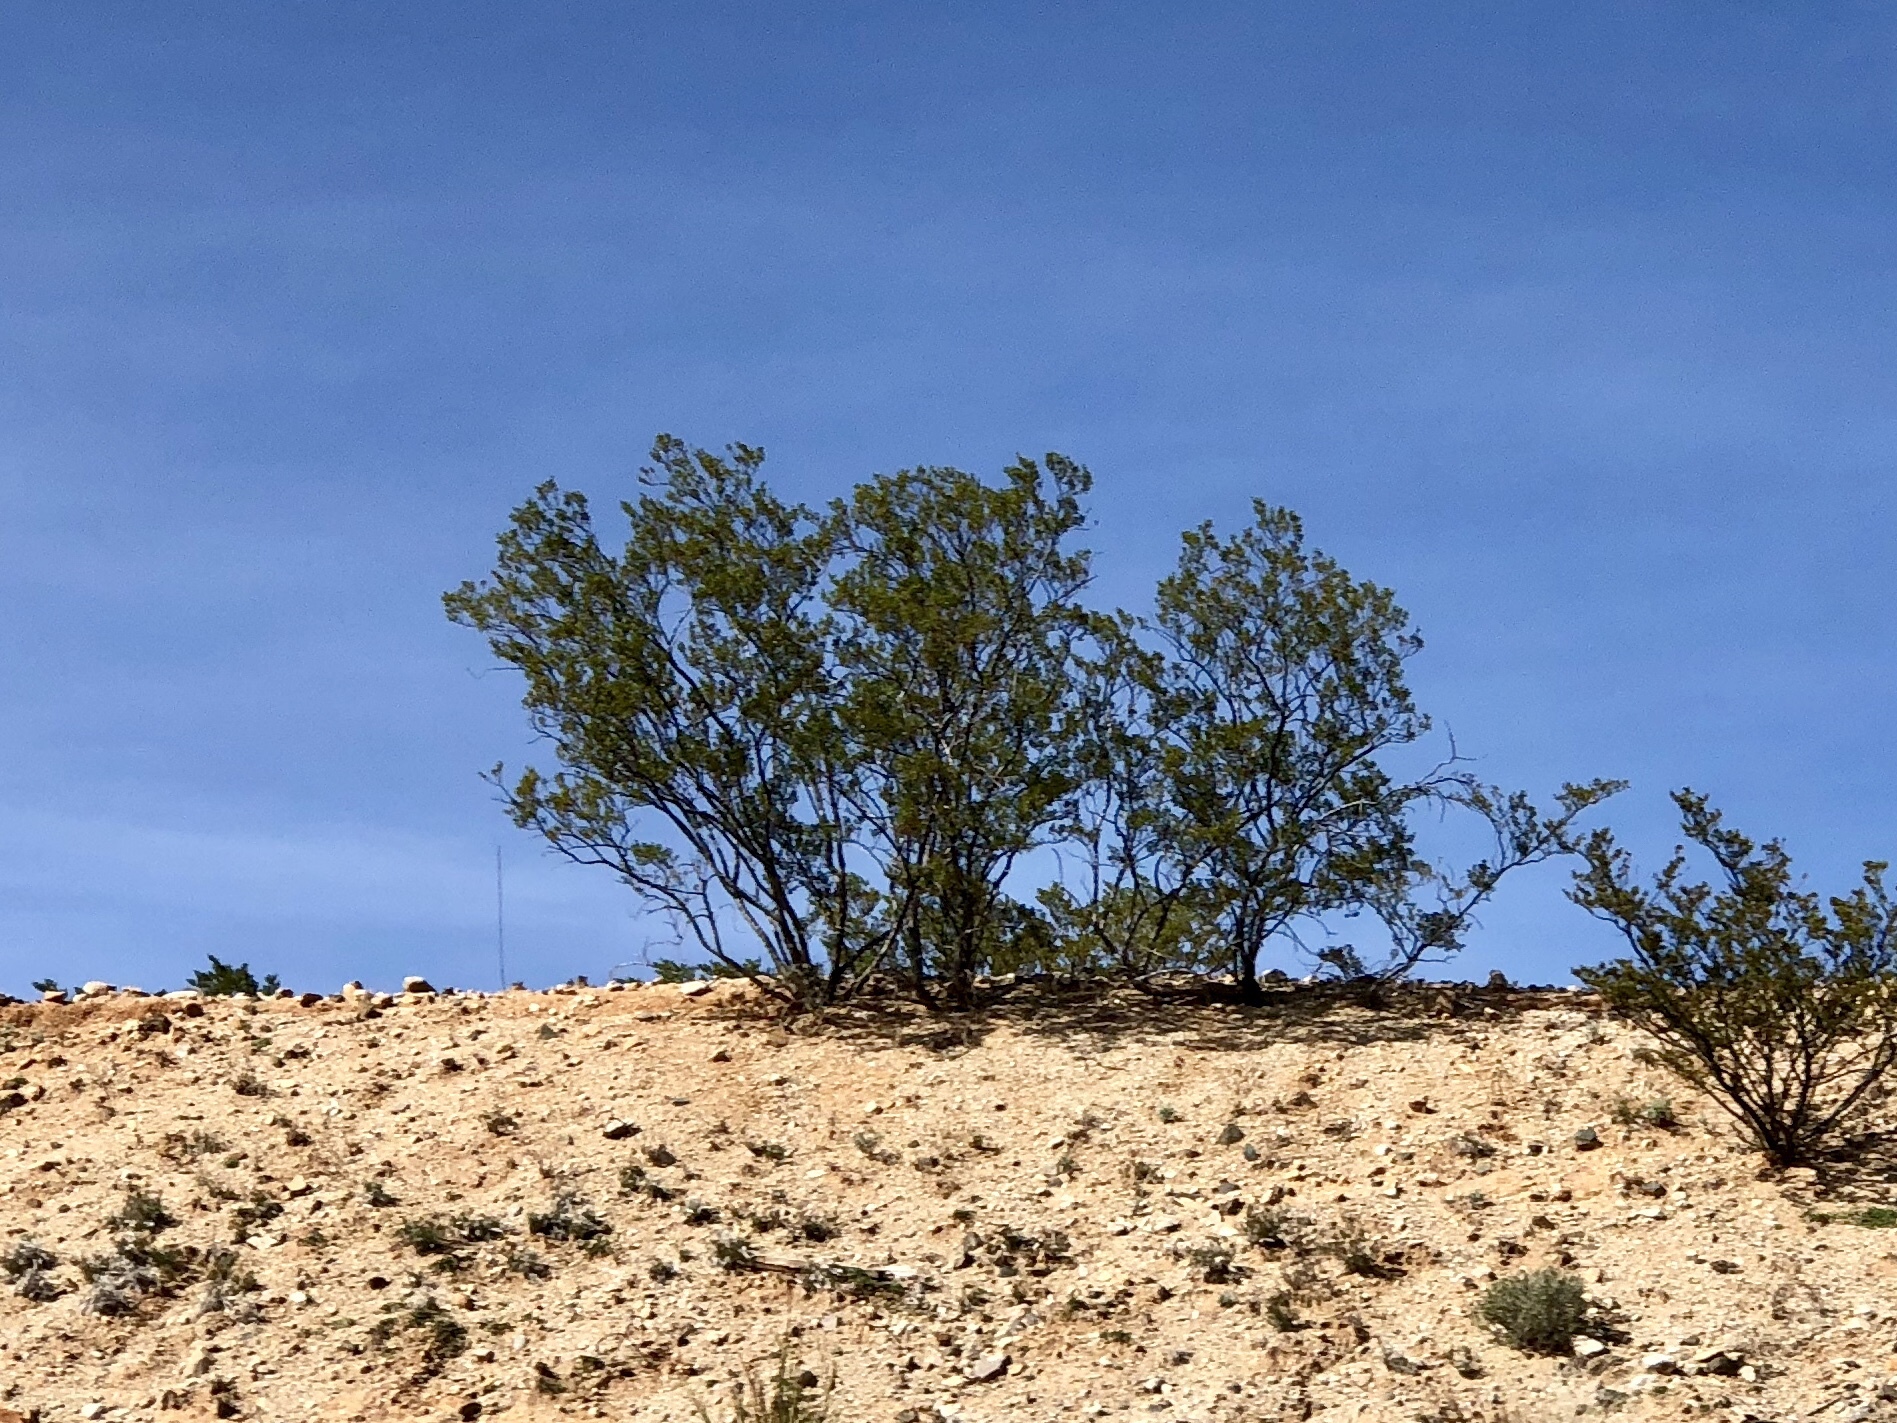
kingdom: Plantae
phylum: Tracheophyta
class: Magnoliopsida
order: Zygophyllales
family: Zygophyllaceae
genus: Larrea
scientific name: Larrea tridentata
